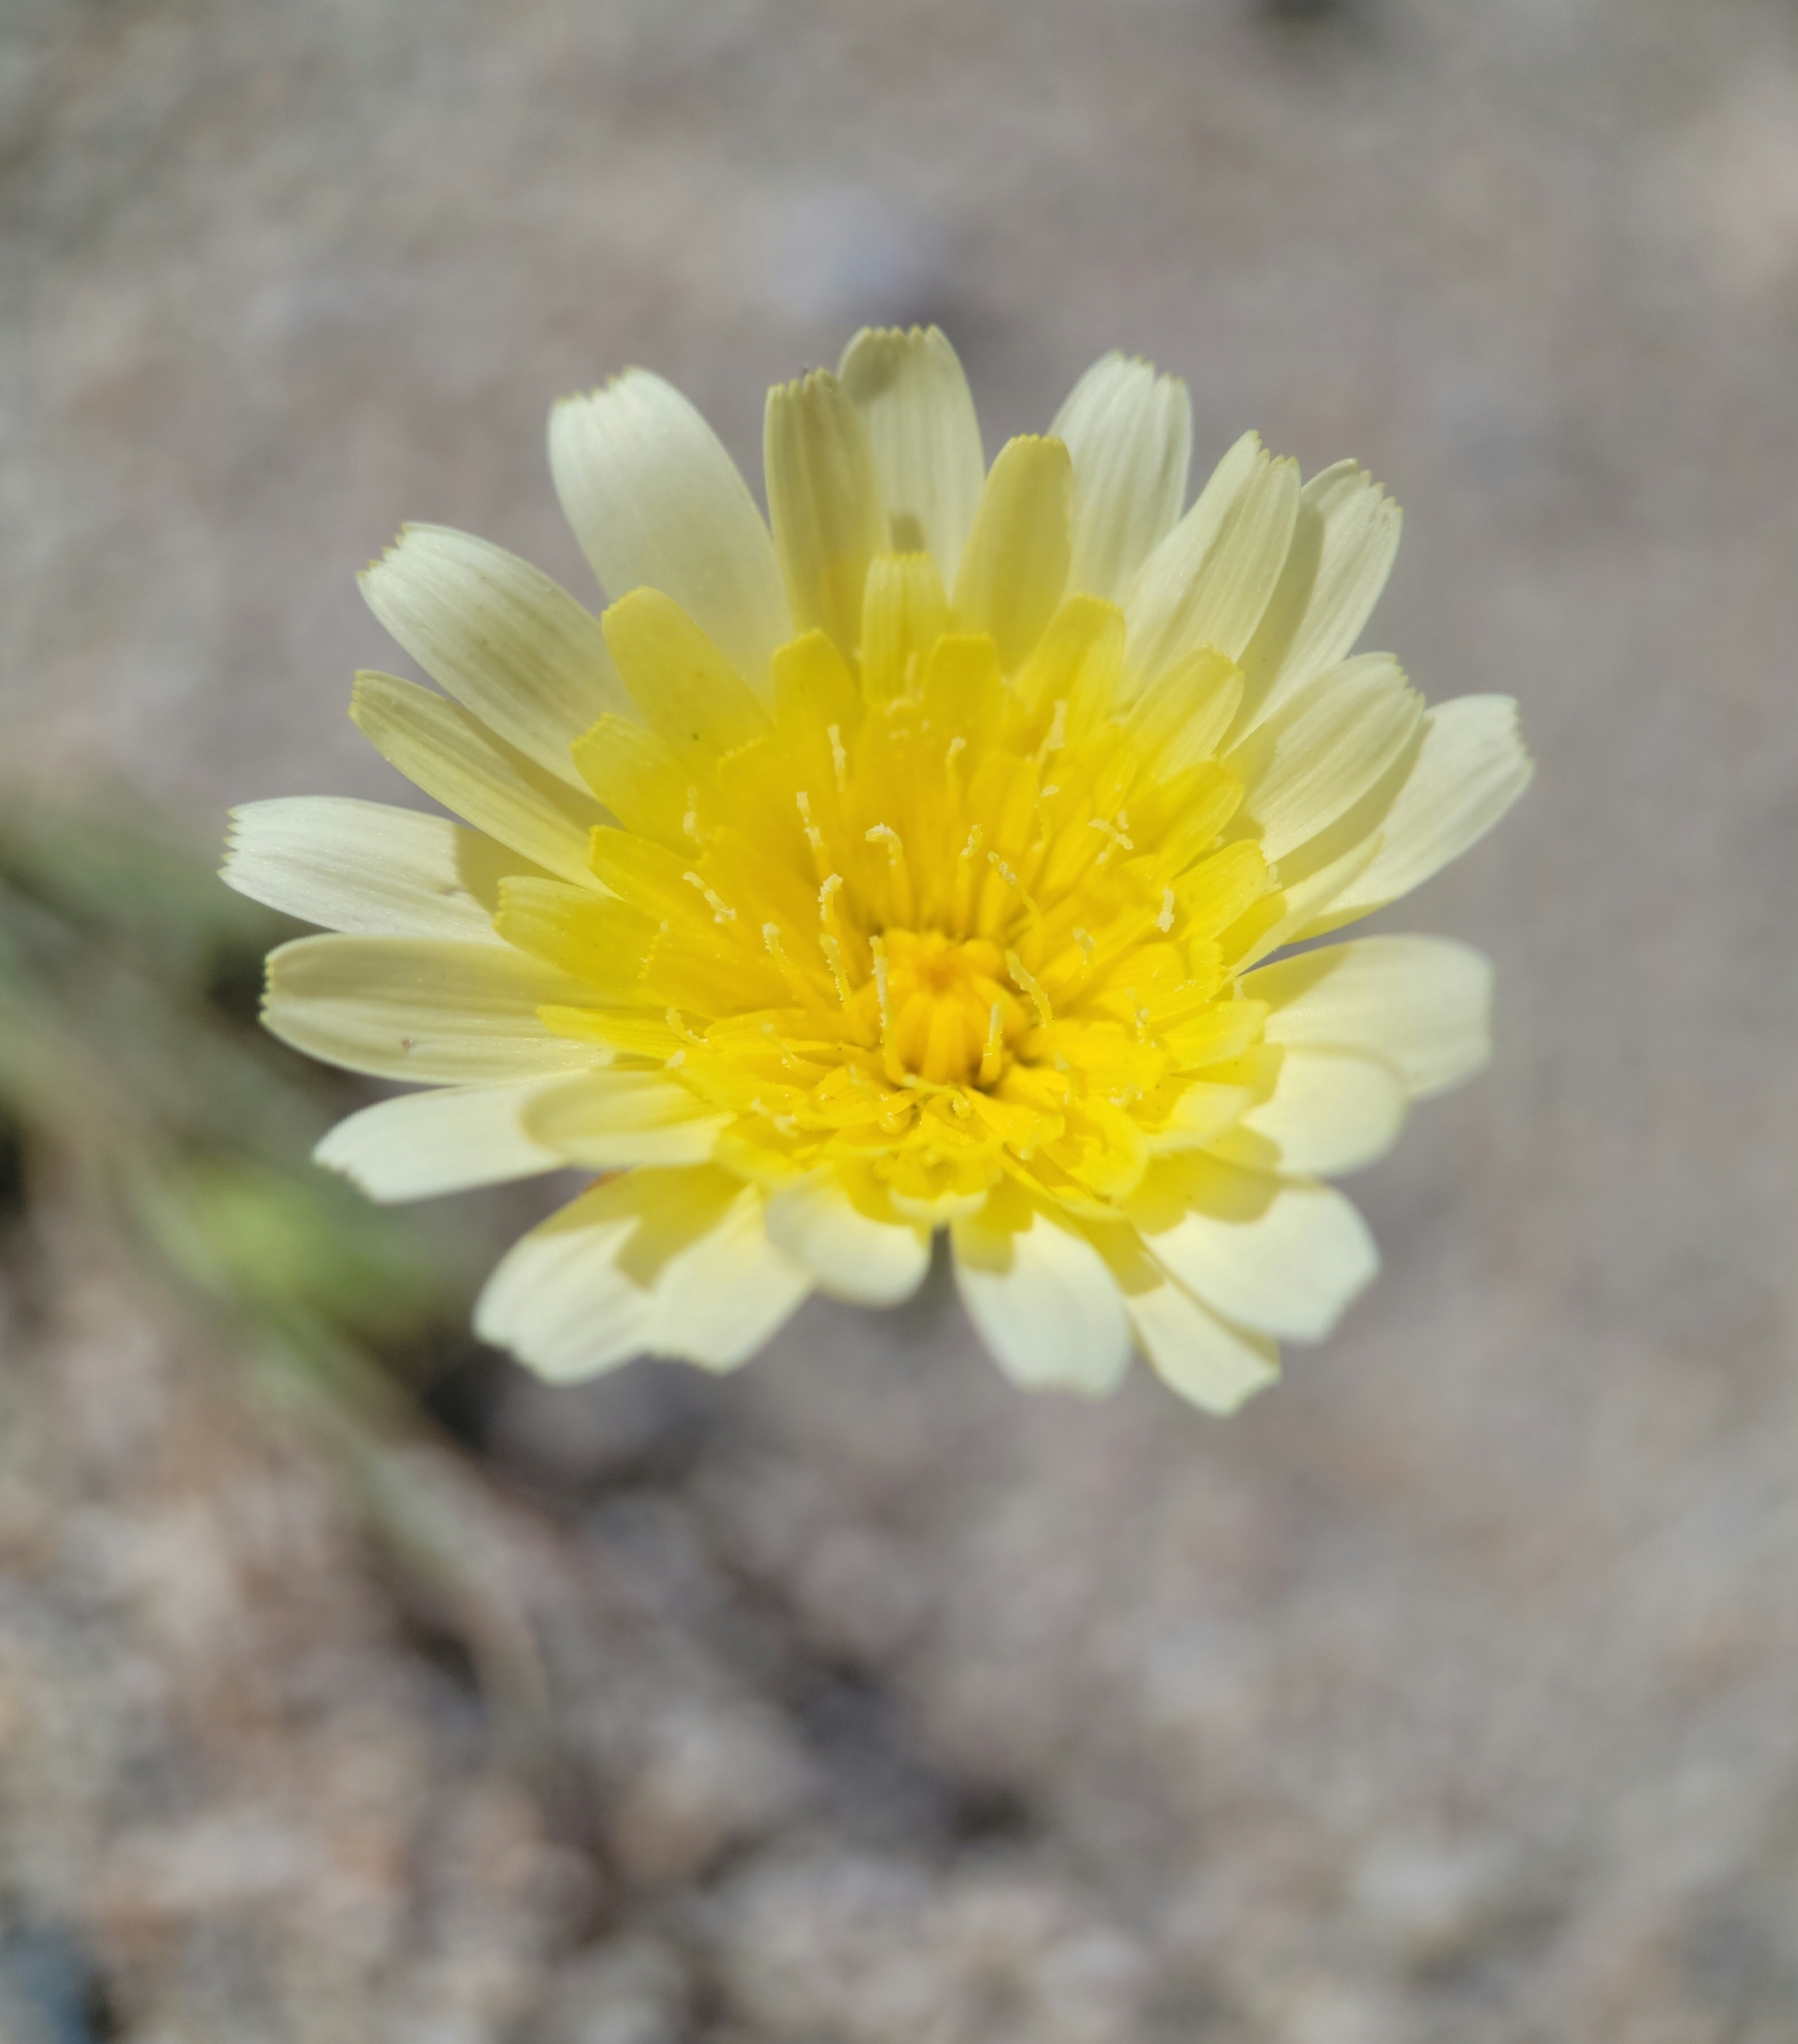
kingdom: Plantae
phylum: Tracheophyta
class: Magnoliopsida
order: Asterales
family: Asteraceae
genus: Malacothrix
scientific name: Malacothrix glabrata
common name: Smooth desert-dandelion
